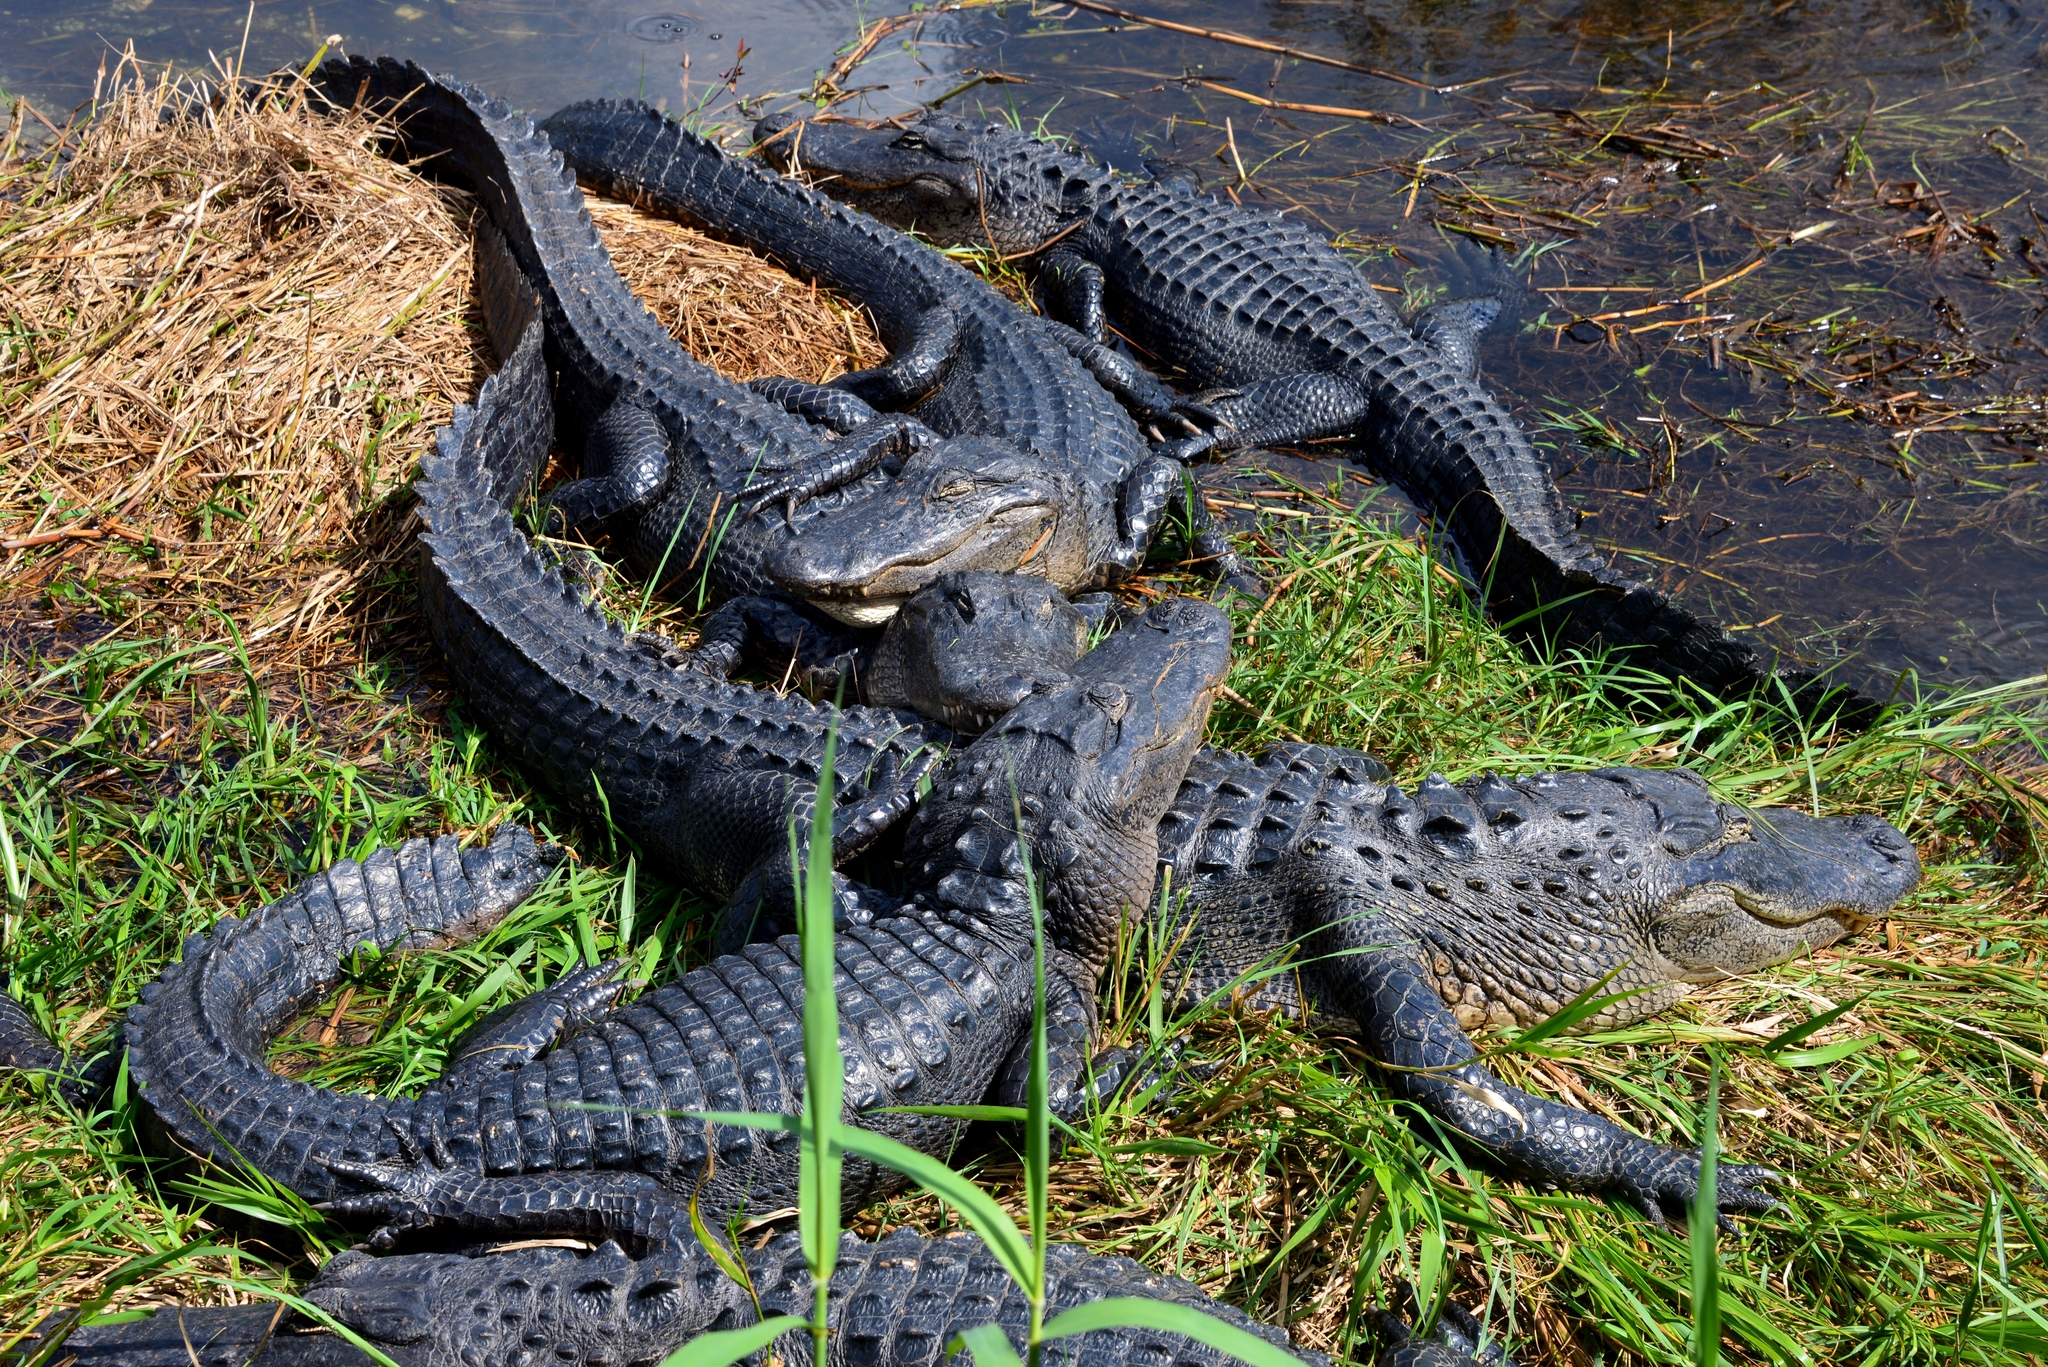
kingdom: Animalia
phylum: Chordata
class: Crocodylia
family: Alligatoridae
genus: Alligator
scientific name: Alligator mississippiensis
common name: American alligator
